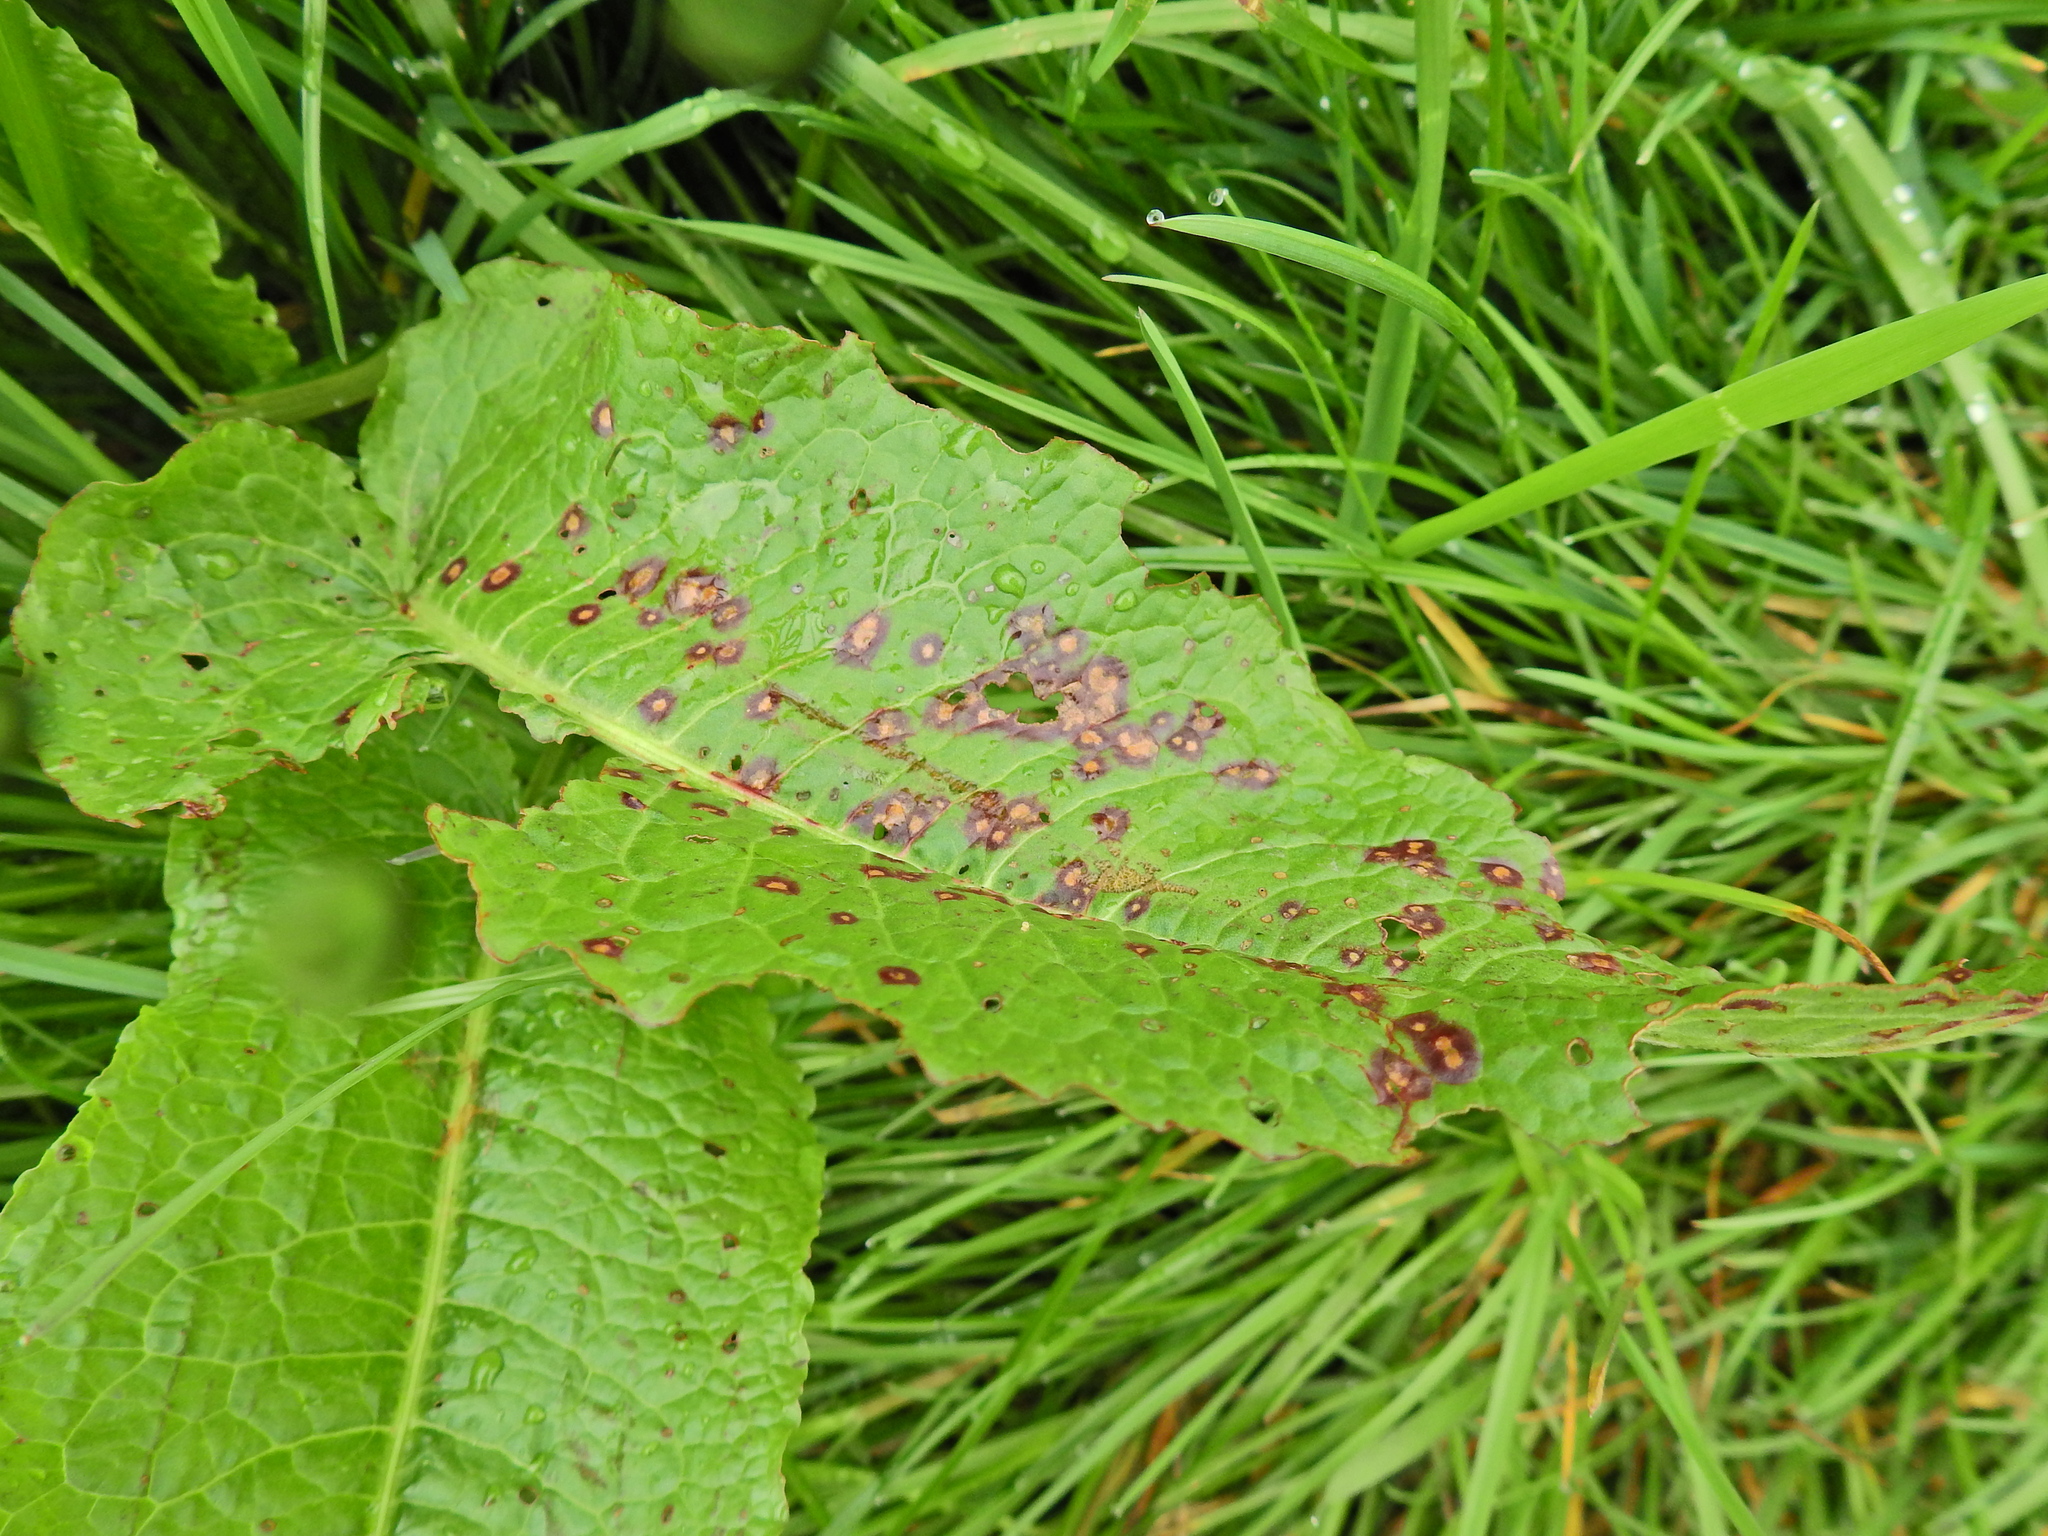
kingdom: Fungi
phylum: Ascomycota
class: Dothideomycetes
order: Mycosphaerellales
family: Mycosphaerellaceae
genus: Ramularia
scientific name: Ramularia rubella
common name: Red dock spot
